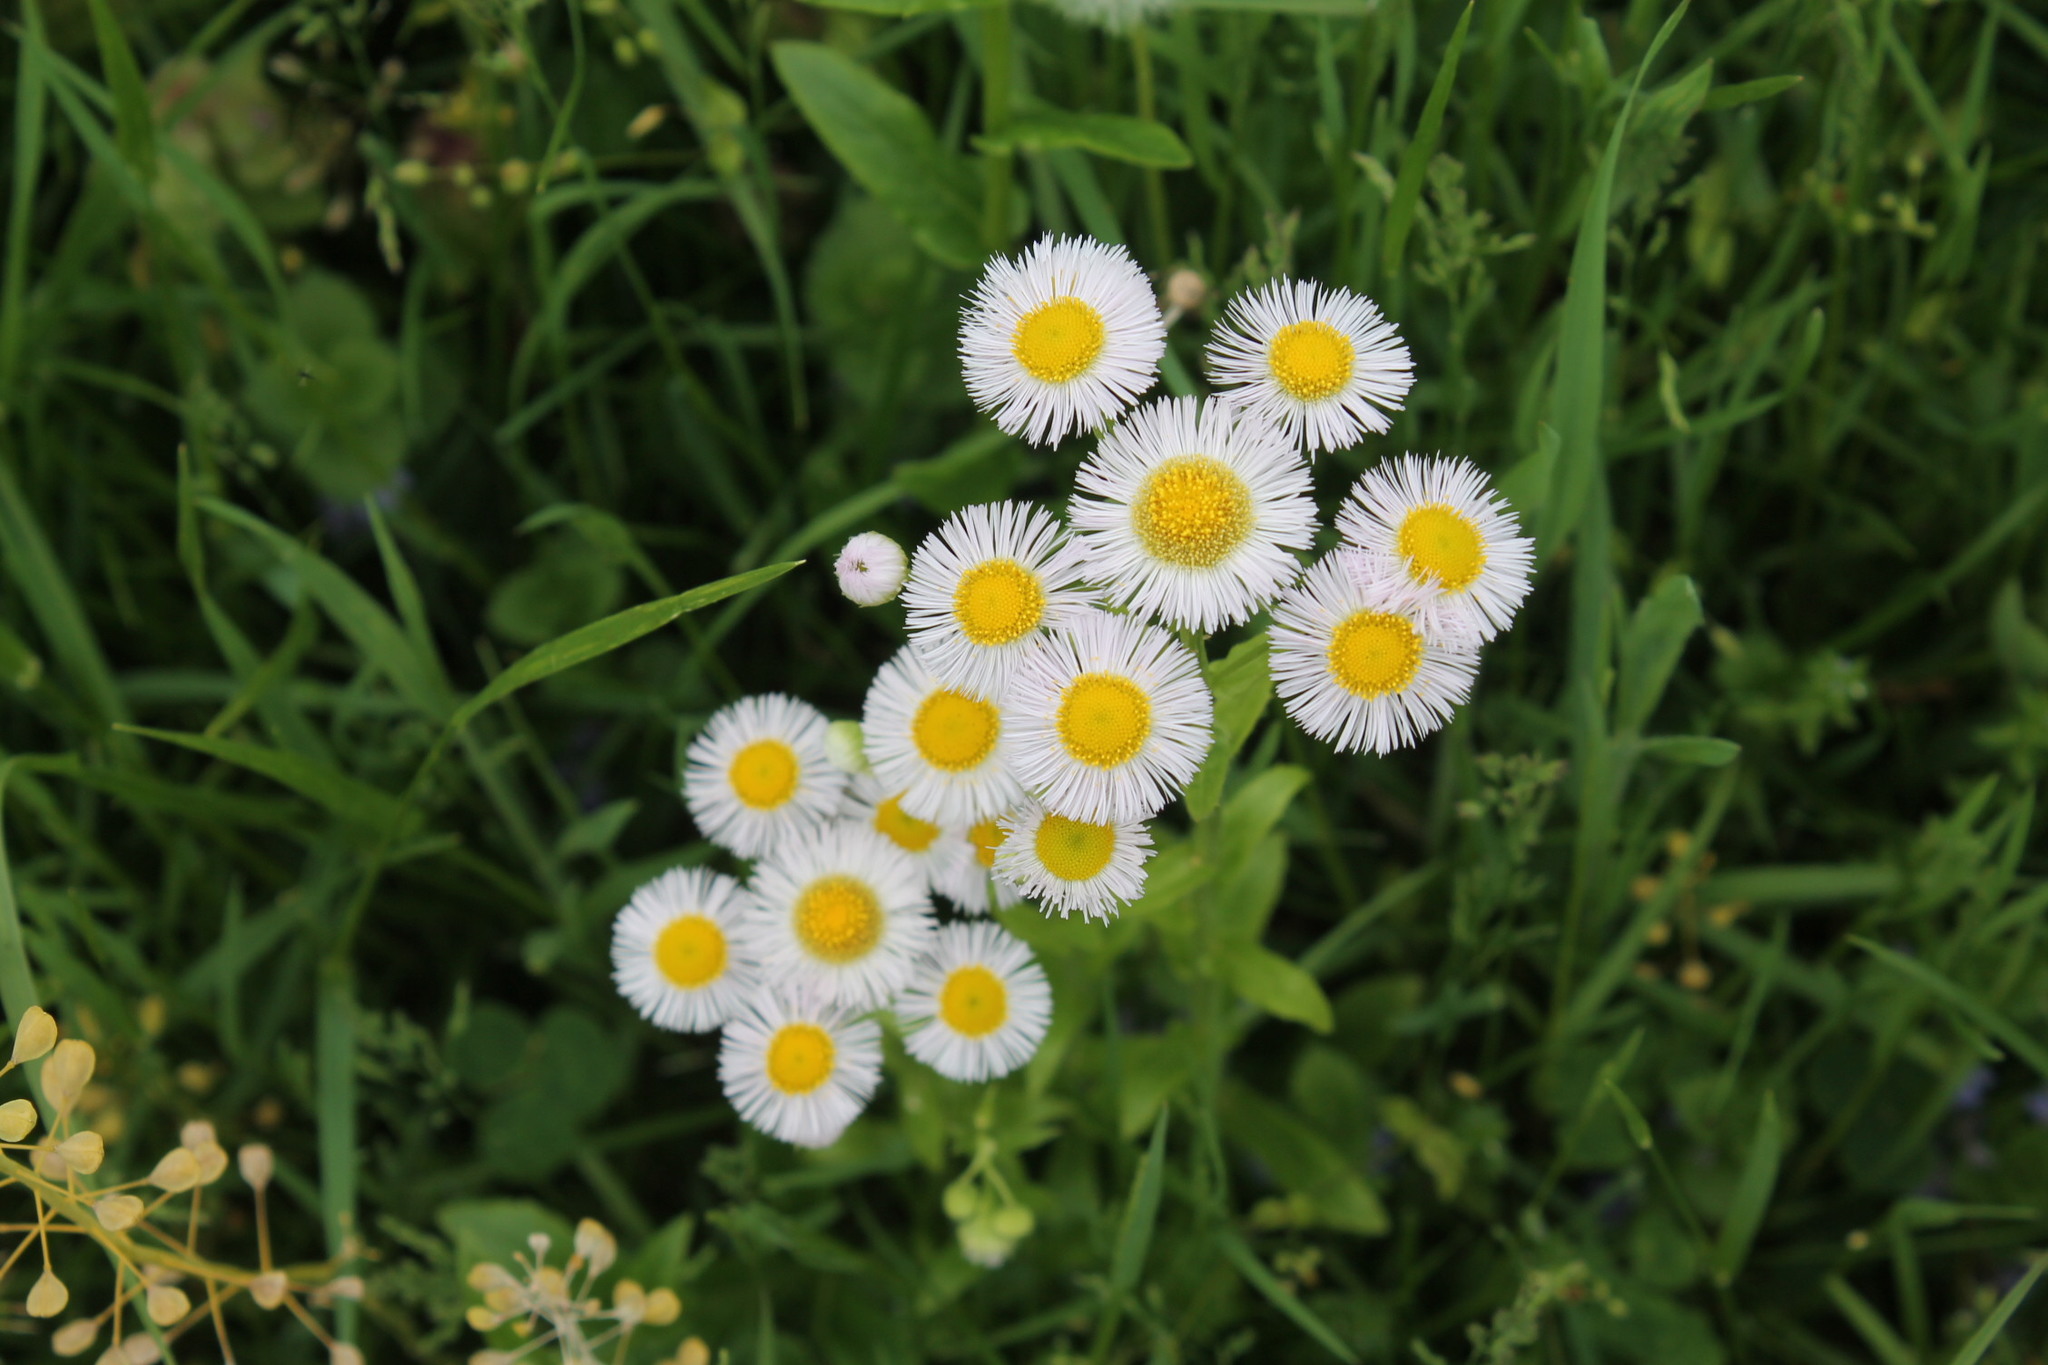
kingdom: Plantae
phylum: Tracheophyta
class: Magnoliopsida
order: Asterales
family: Asteraceae
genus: Erigeron
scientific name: Erigeron philadelphicus
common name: Robin's-plantain
